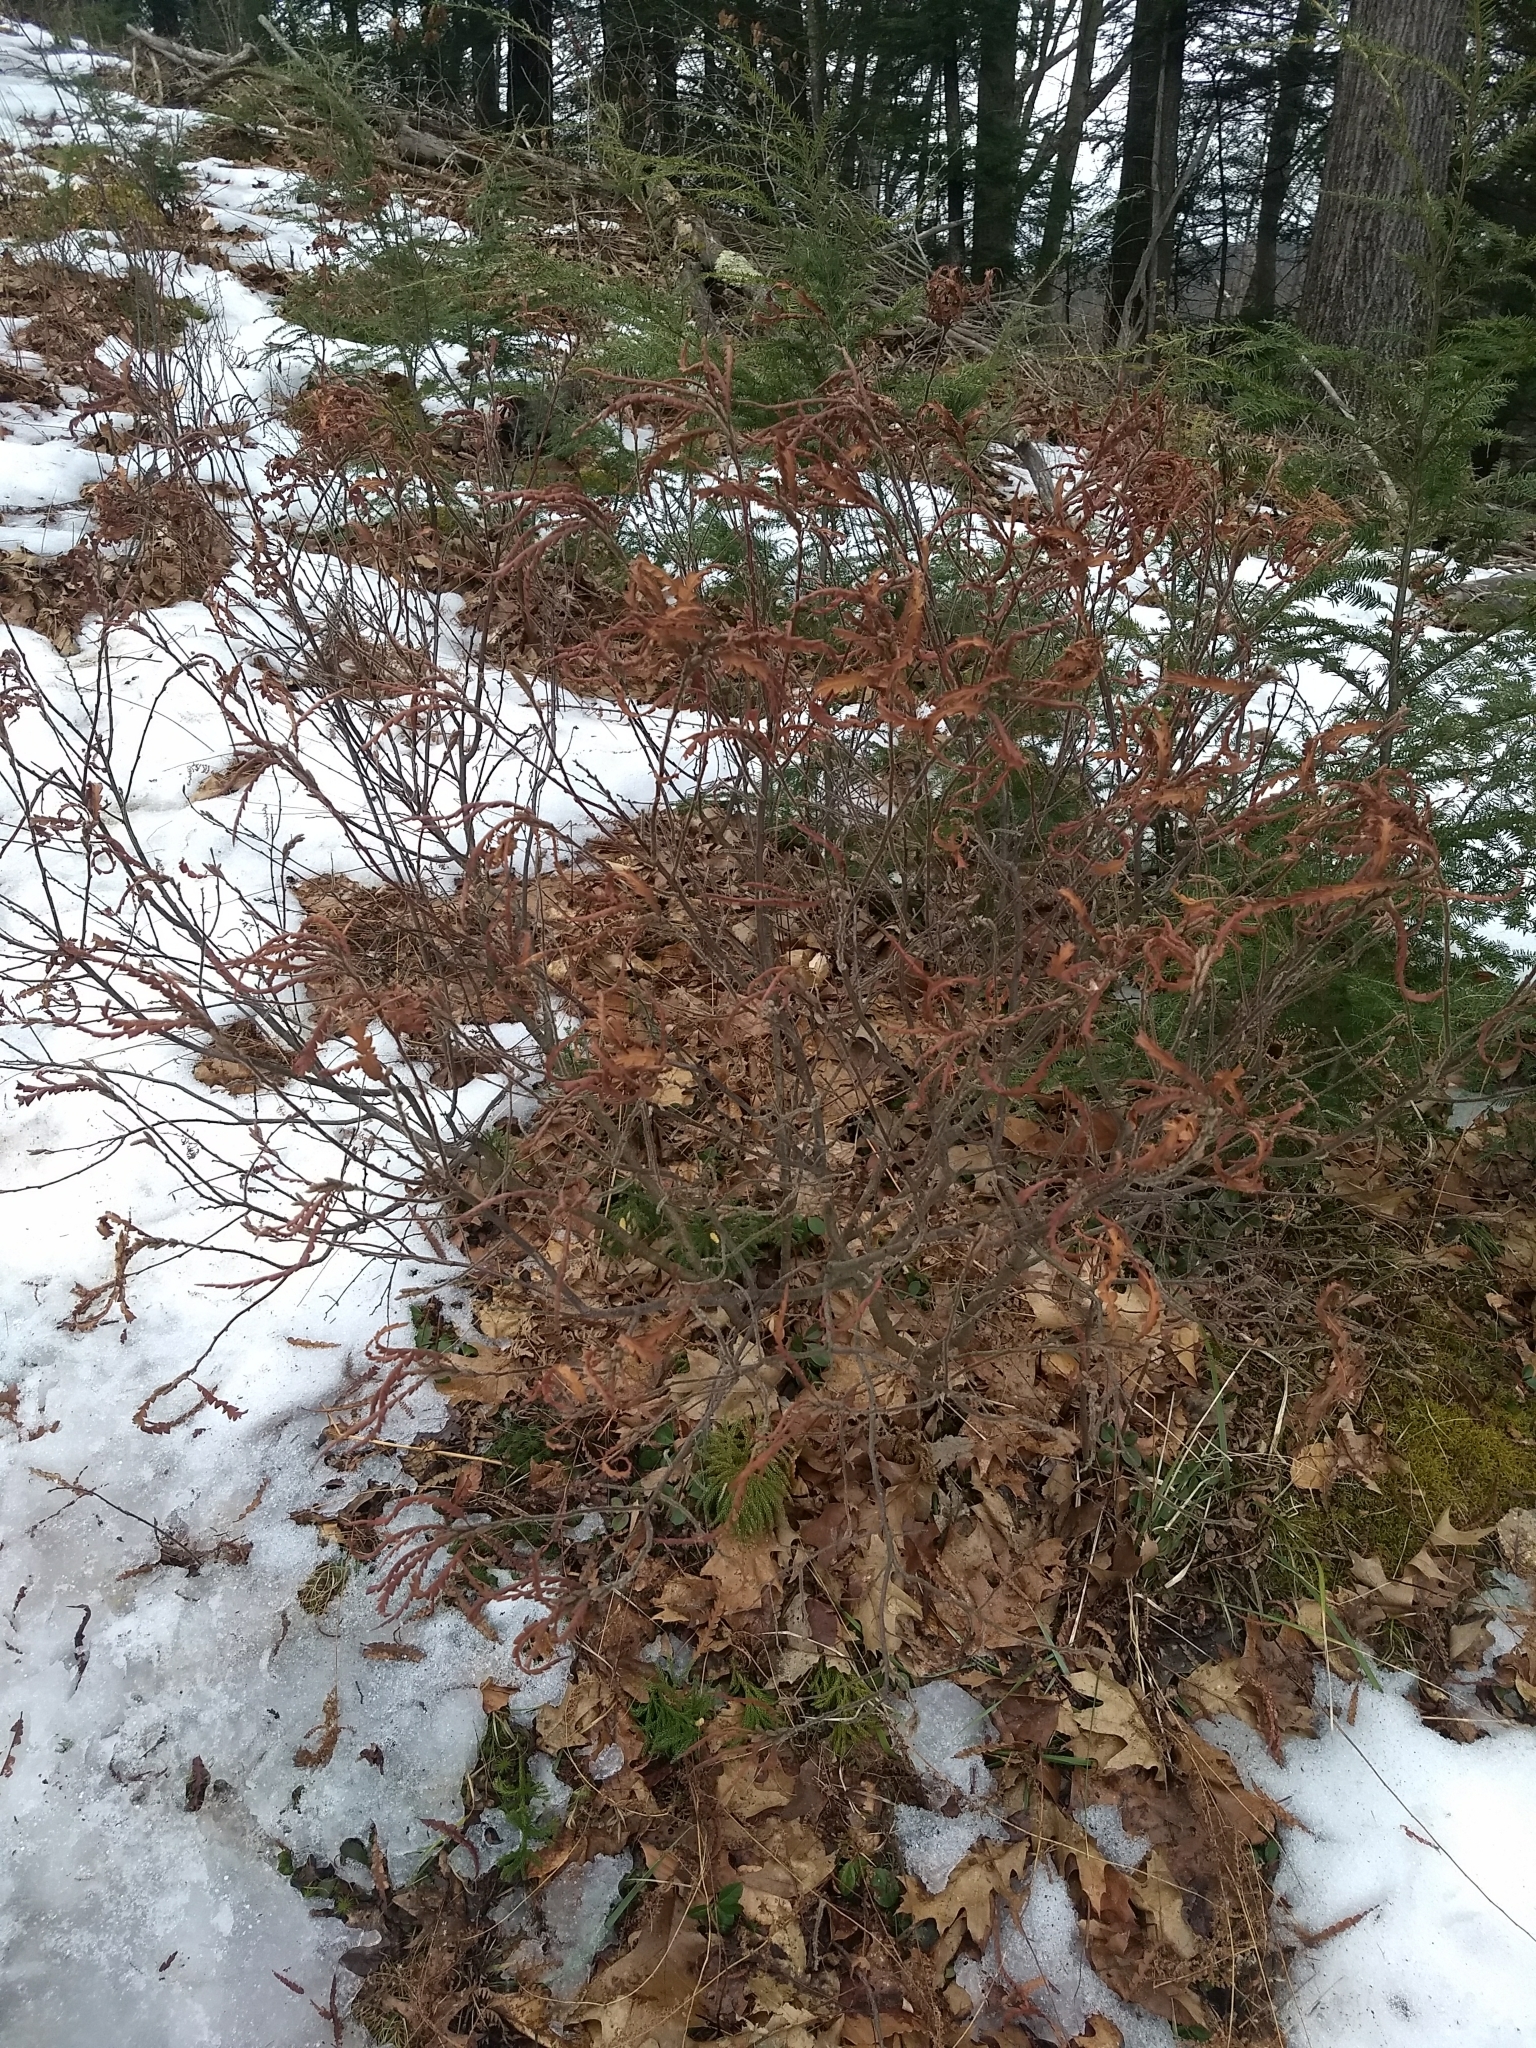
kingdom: Plantae
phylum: Tracheophyta
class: Magnoliopsida
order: Fagales
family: Myricaceae
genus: Comptonia
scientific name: Comptonia peregrina
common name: Sweet-fern
